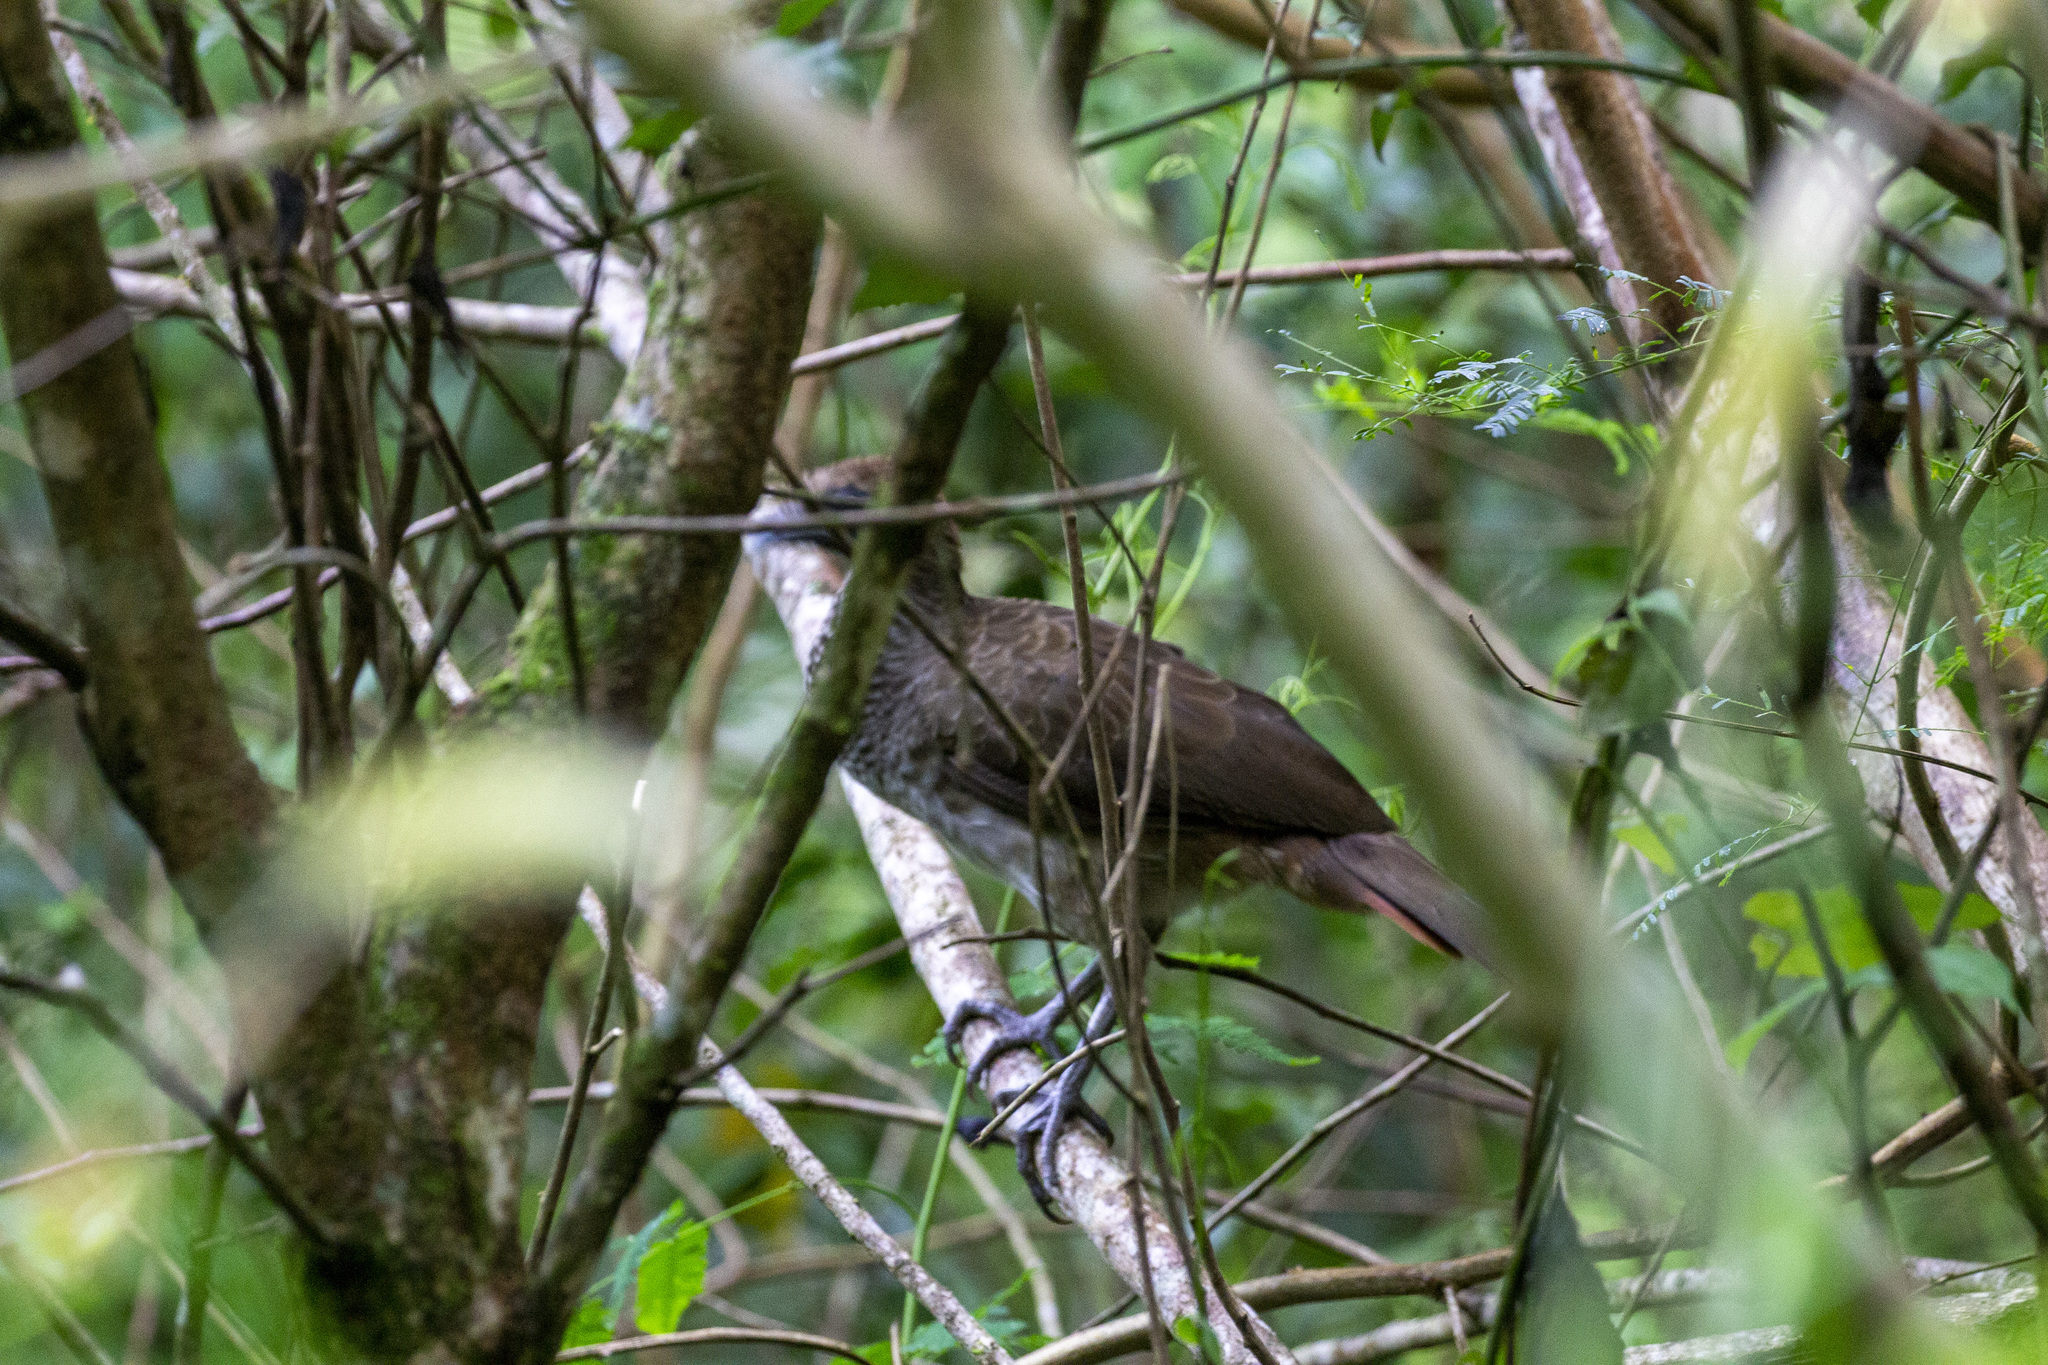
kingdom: Animalia
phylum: Chordata
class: Aves
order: Galliformes
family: Cracidae
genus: Ortalis
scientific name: Ortalis araucuan
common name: East brazilian chachalaca
